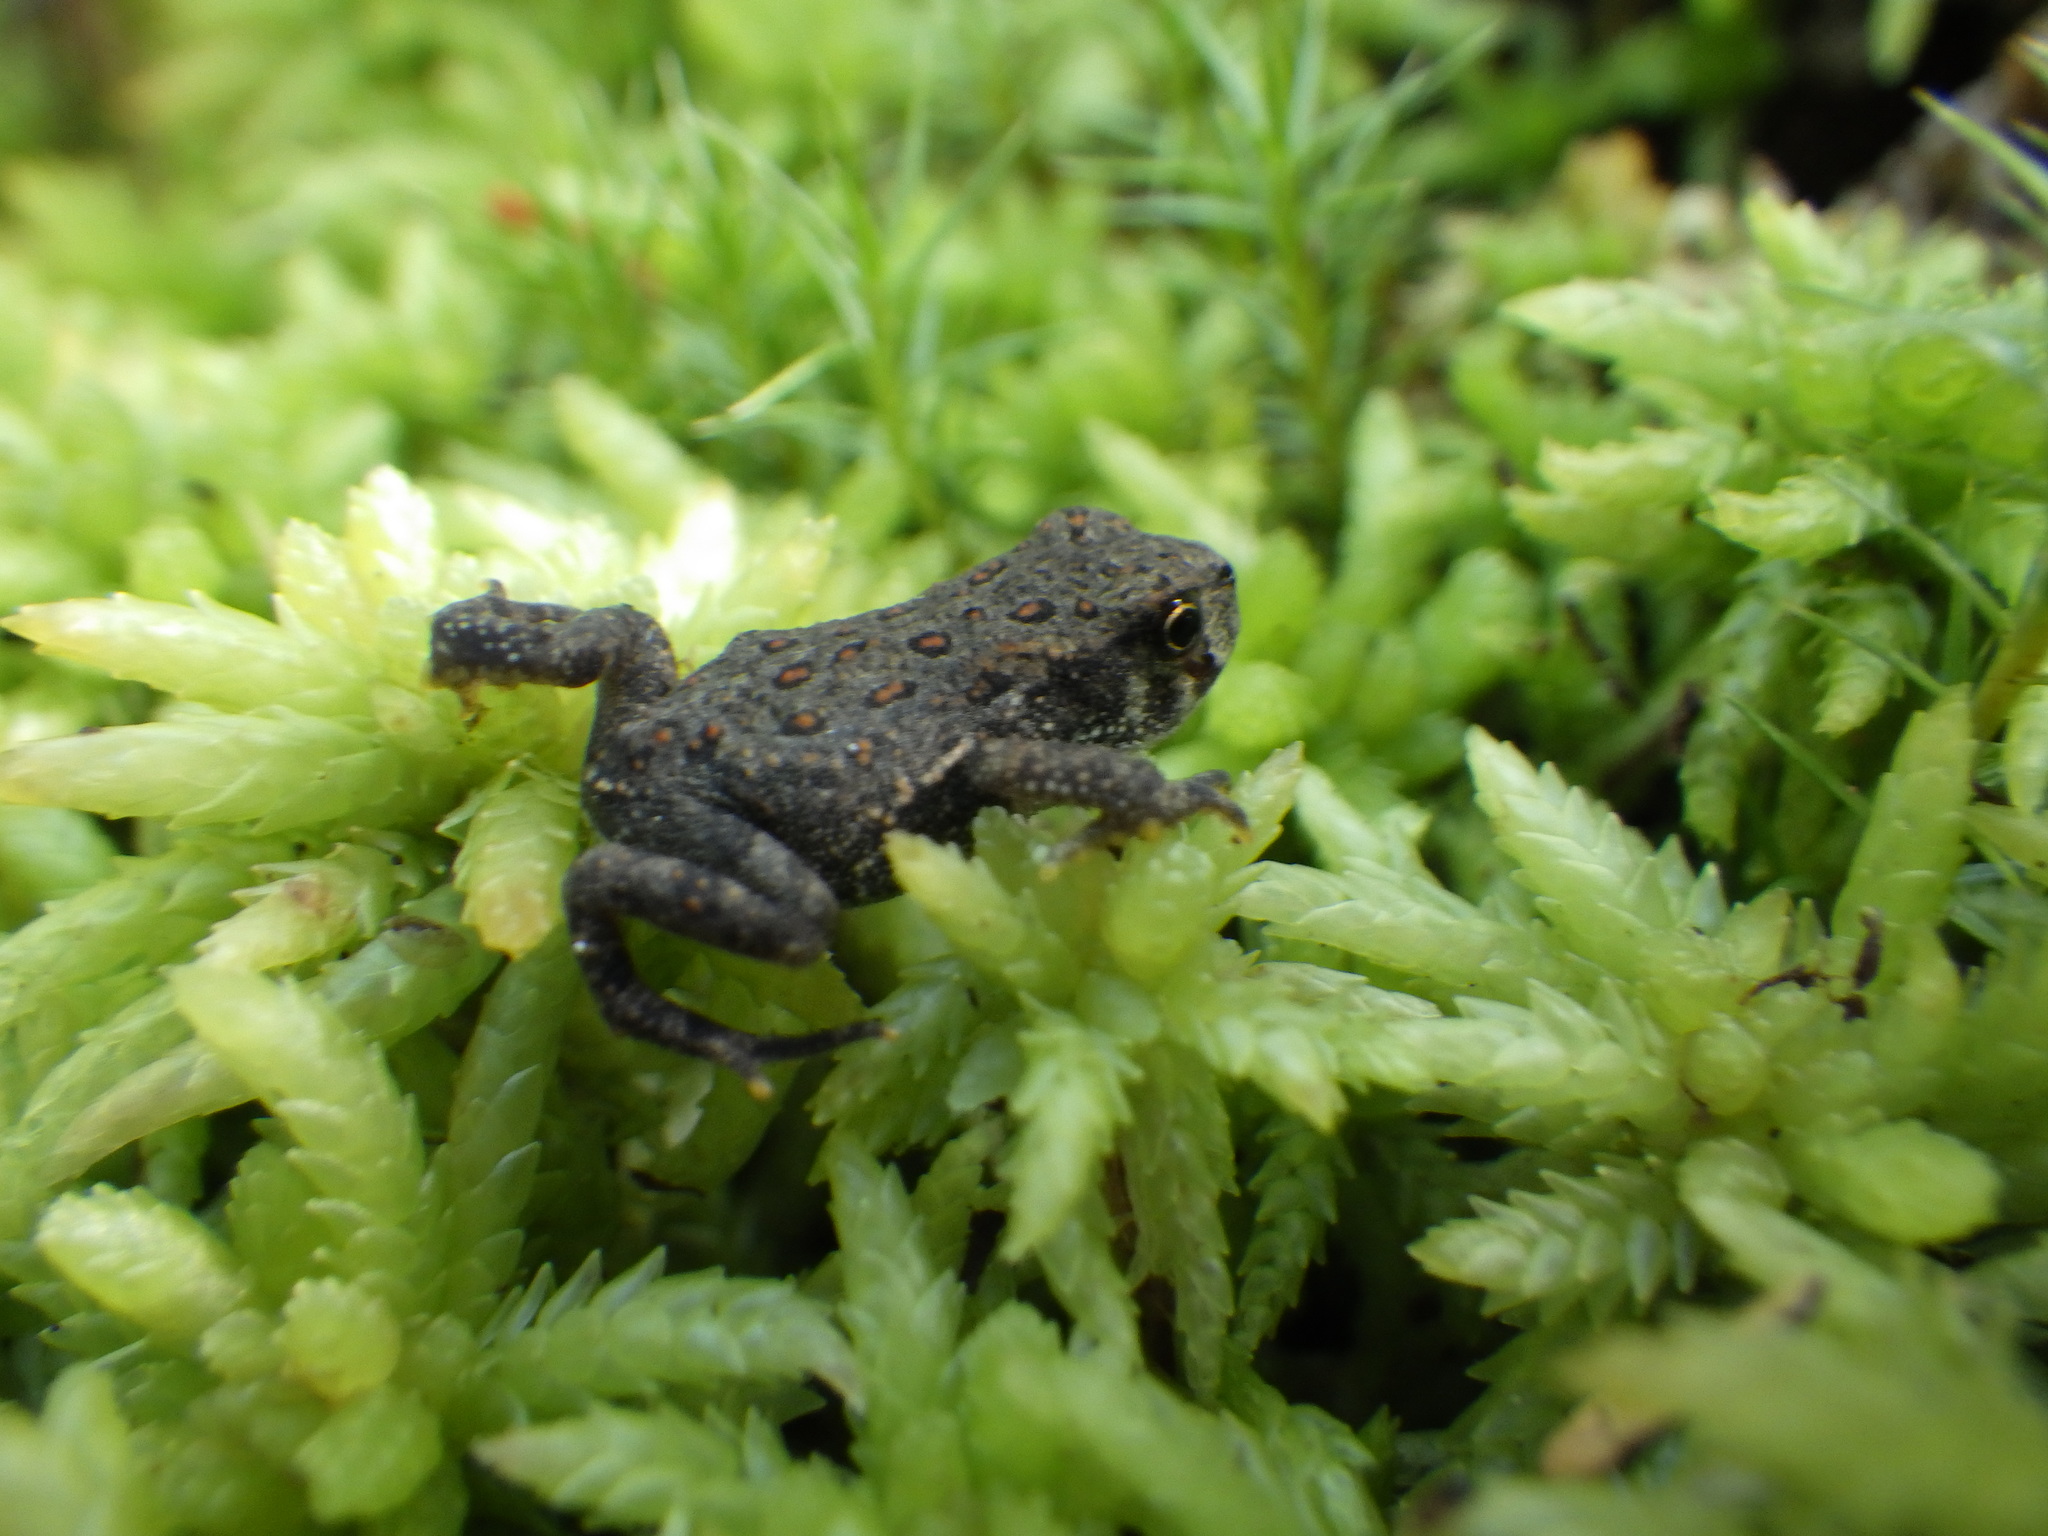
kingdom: Animalia
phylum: Chordata
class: Amphibia
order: Anura
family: Bufonidae
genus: Anaxyrus
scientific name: Anaxyrus americanus
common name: American toad
